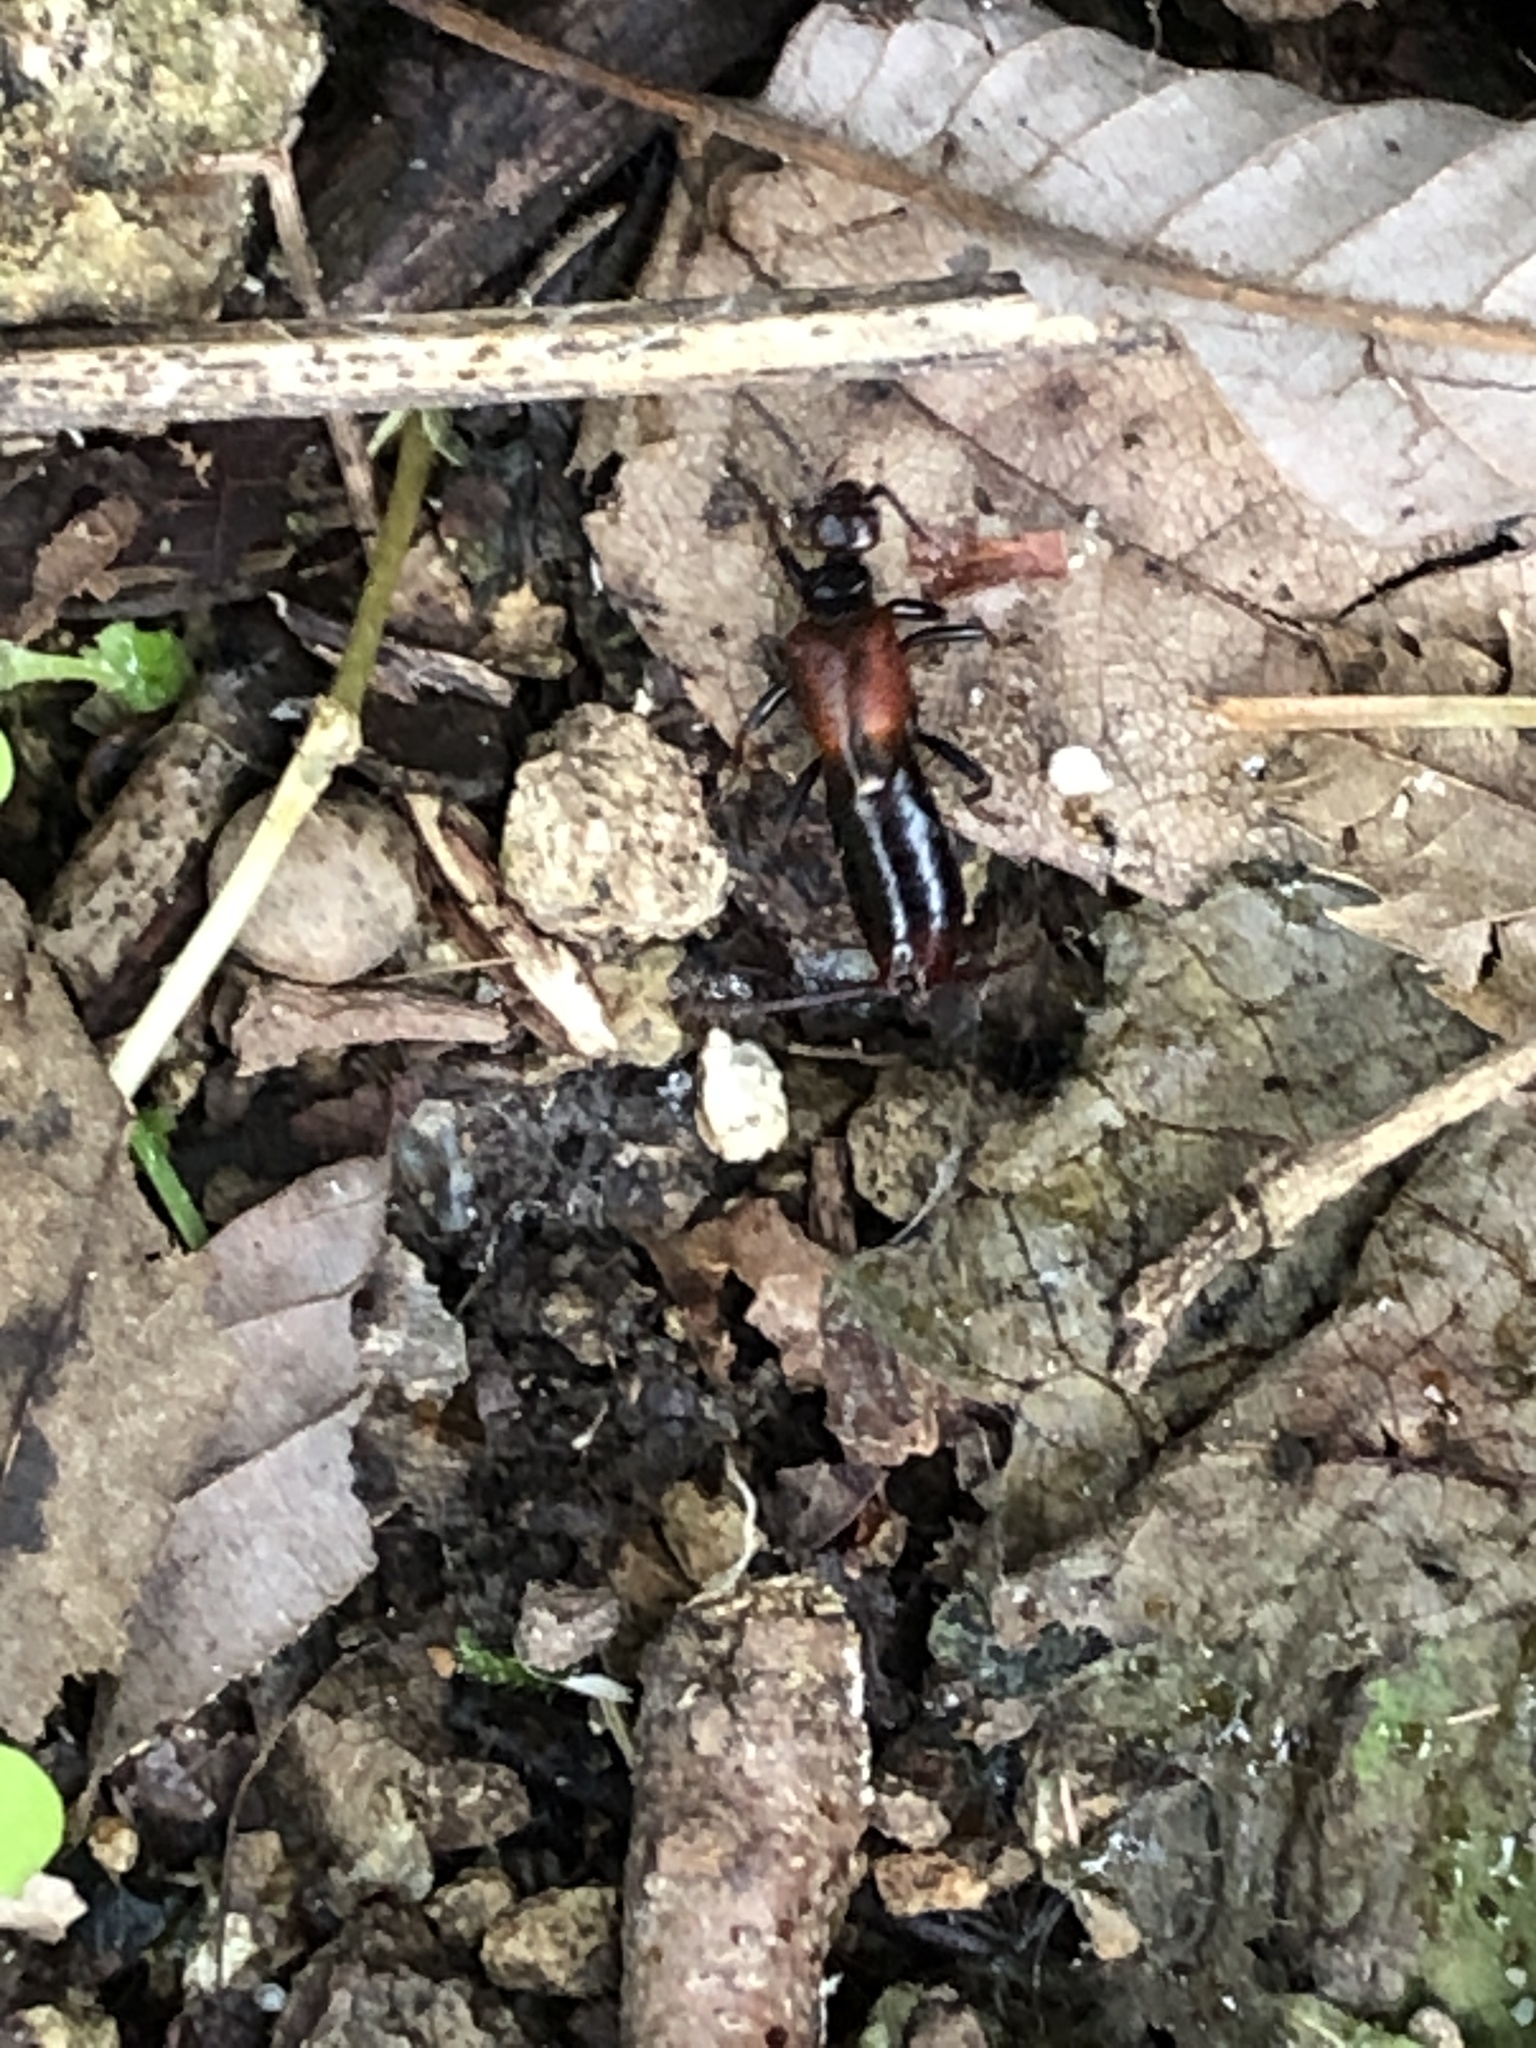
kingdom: Animalia
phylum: Arthropoda
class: Insecta
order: Dermaptera
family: Forficulidae
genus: Timomenus
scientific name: Timomenus komarovi
